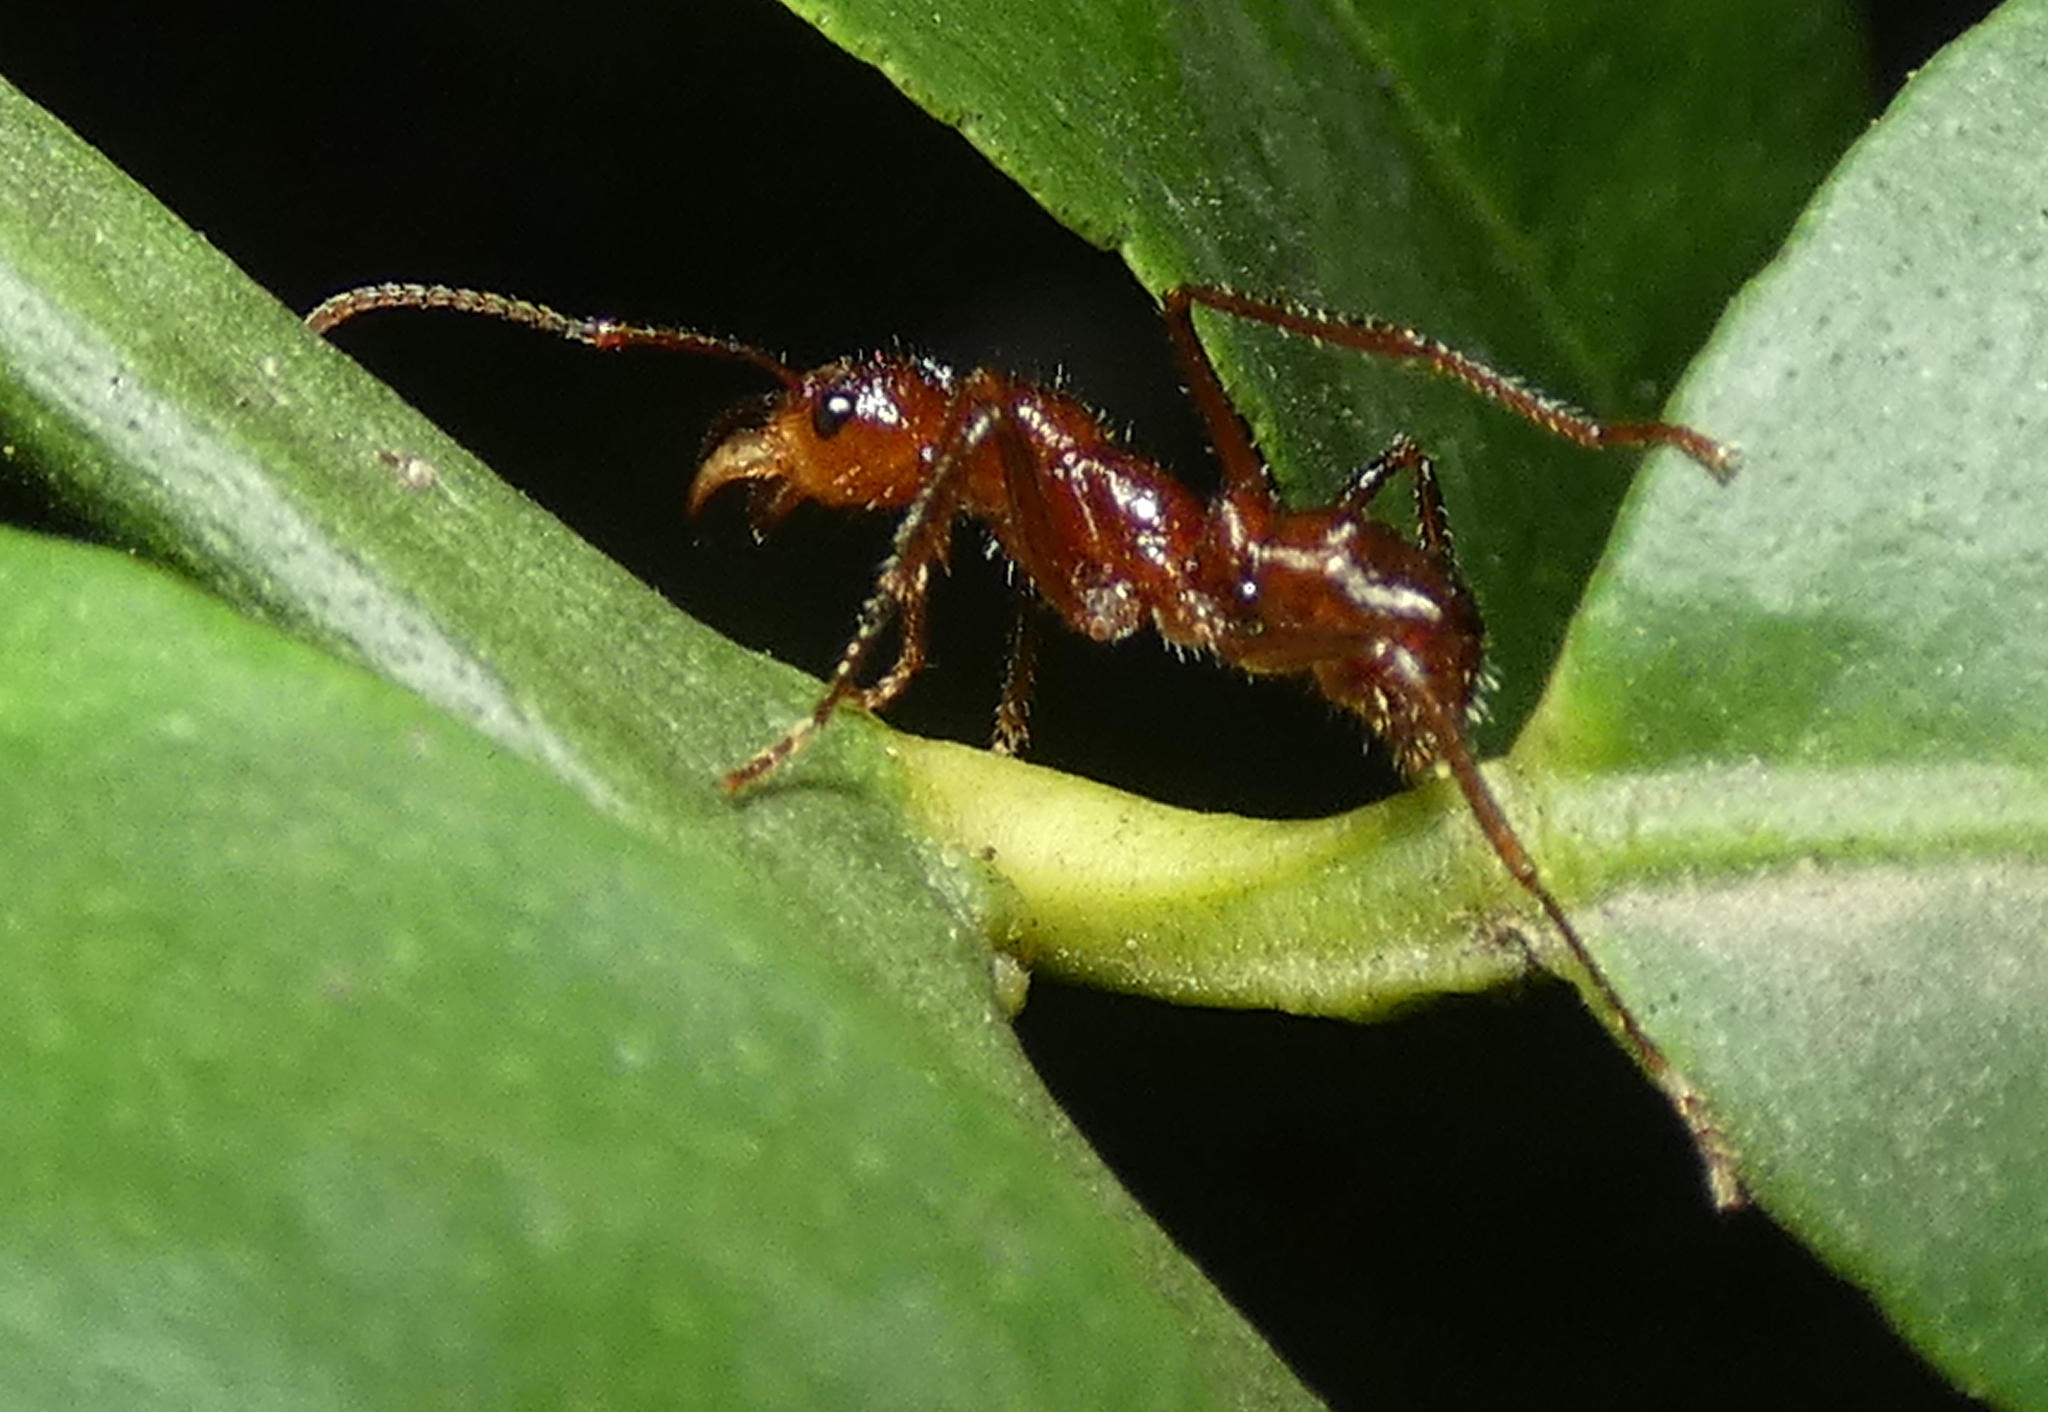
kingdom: Animalia
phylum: Arthropoda
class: Insecta
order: Hymenoptera
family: Formicidae
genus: Ectatomma
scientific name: Ectatomma tuberculatum
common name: Ant
